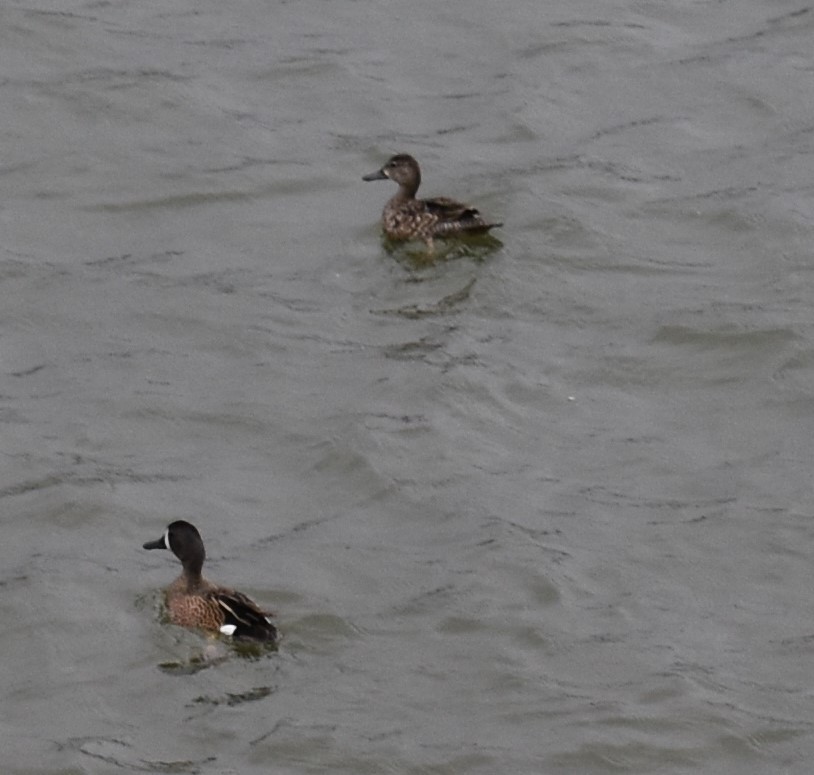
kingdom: Animalia
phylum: Chordata
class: Aves
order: Anseriformes
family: Anatidae
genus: Spatula
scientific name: Spatula discors
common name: Blue-winged teal
